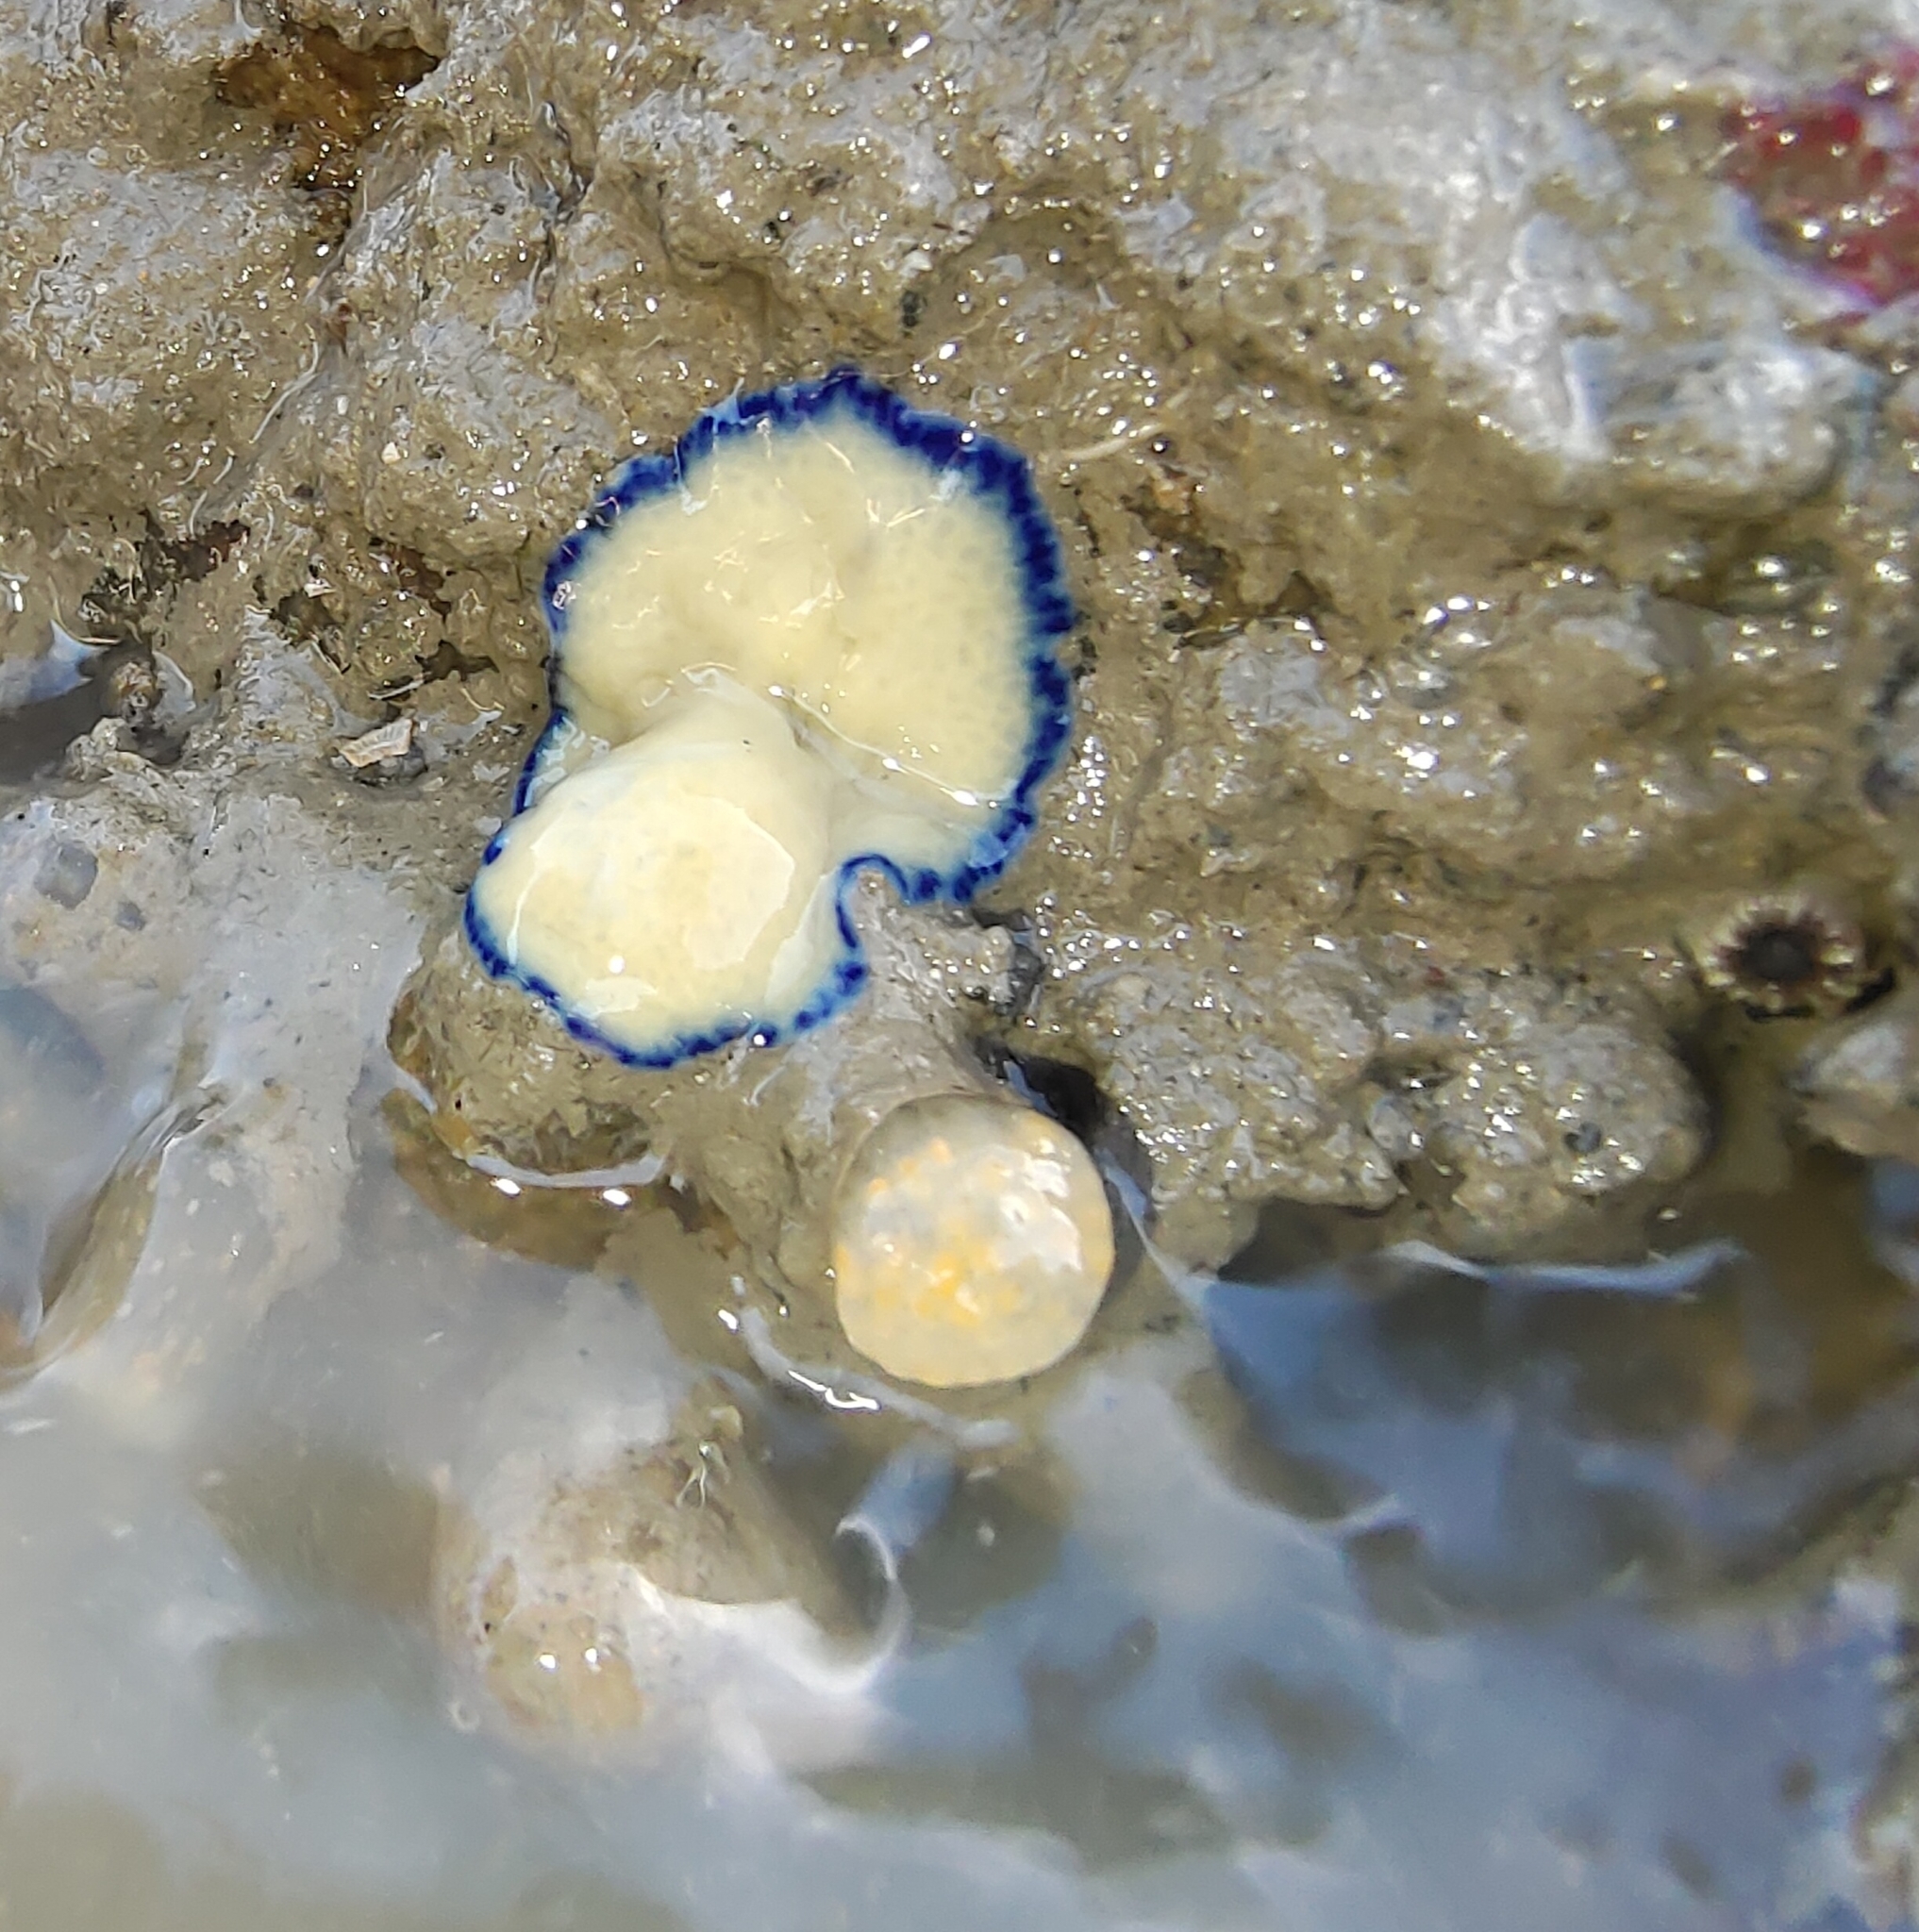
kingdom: Animalia
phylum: Platyhelminthes
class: Turbellaria
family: Pseudocerotidae
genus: Pseudoceros
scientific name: Pseudoceros indicus
